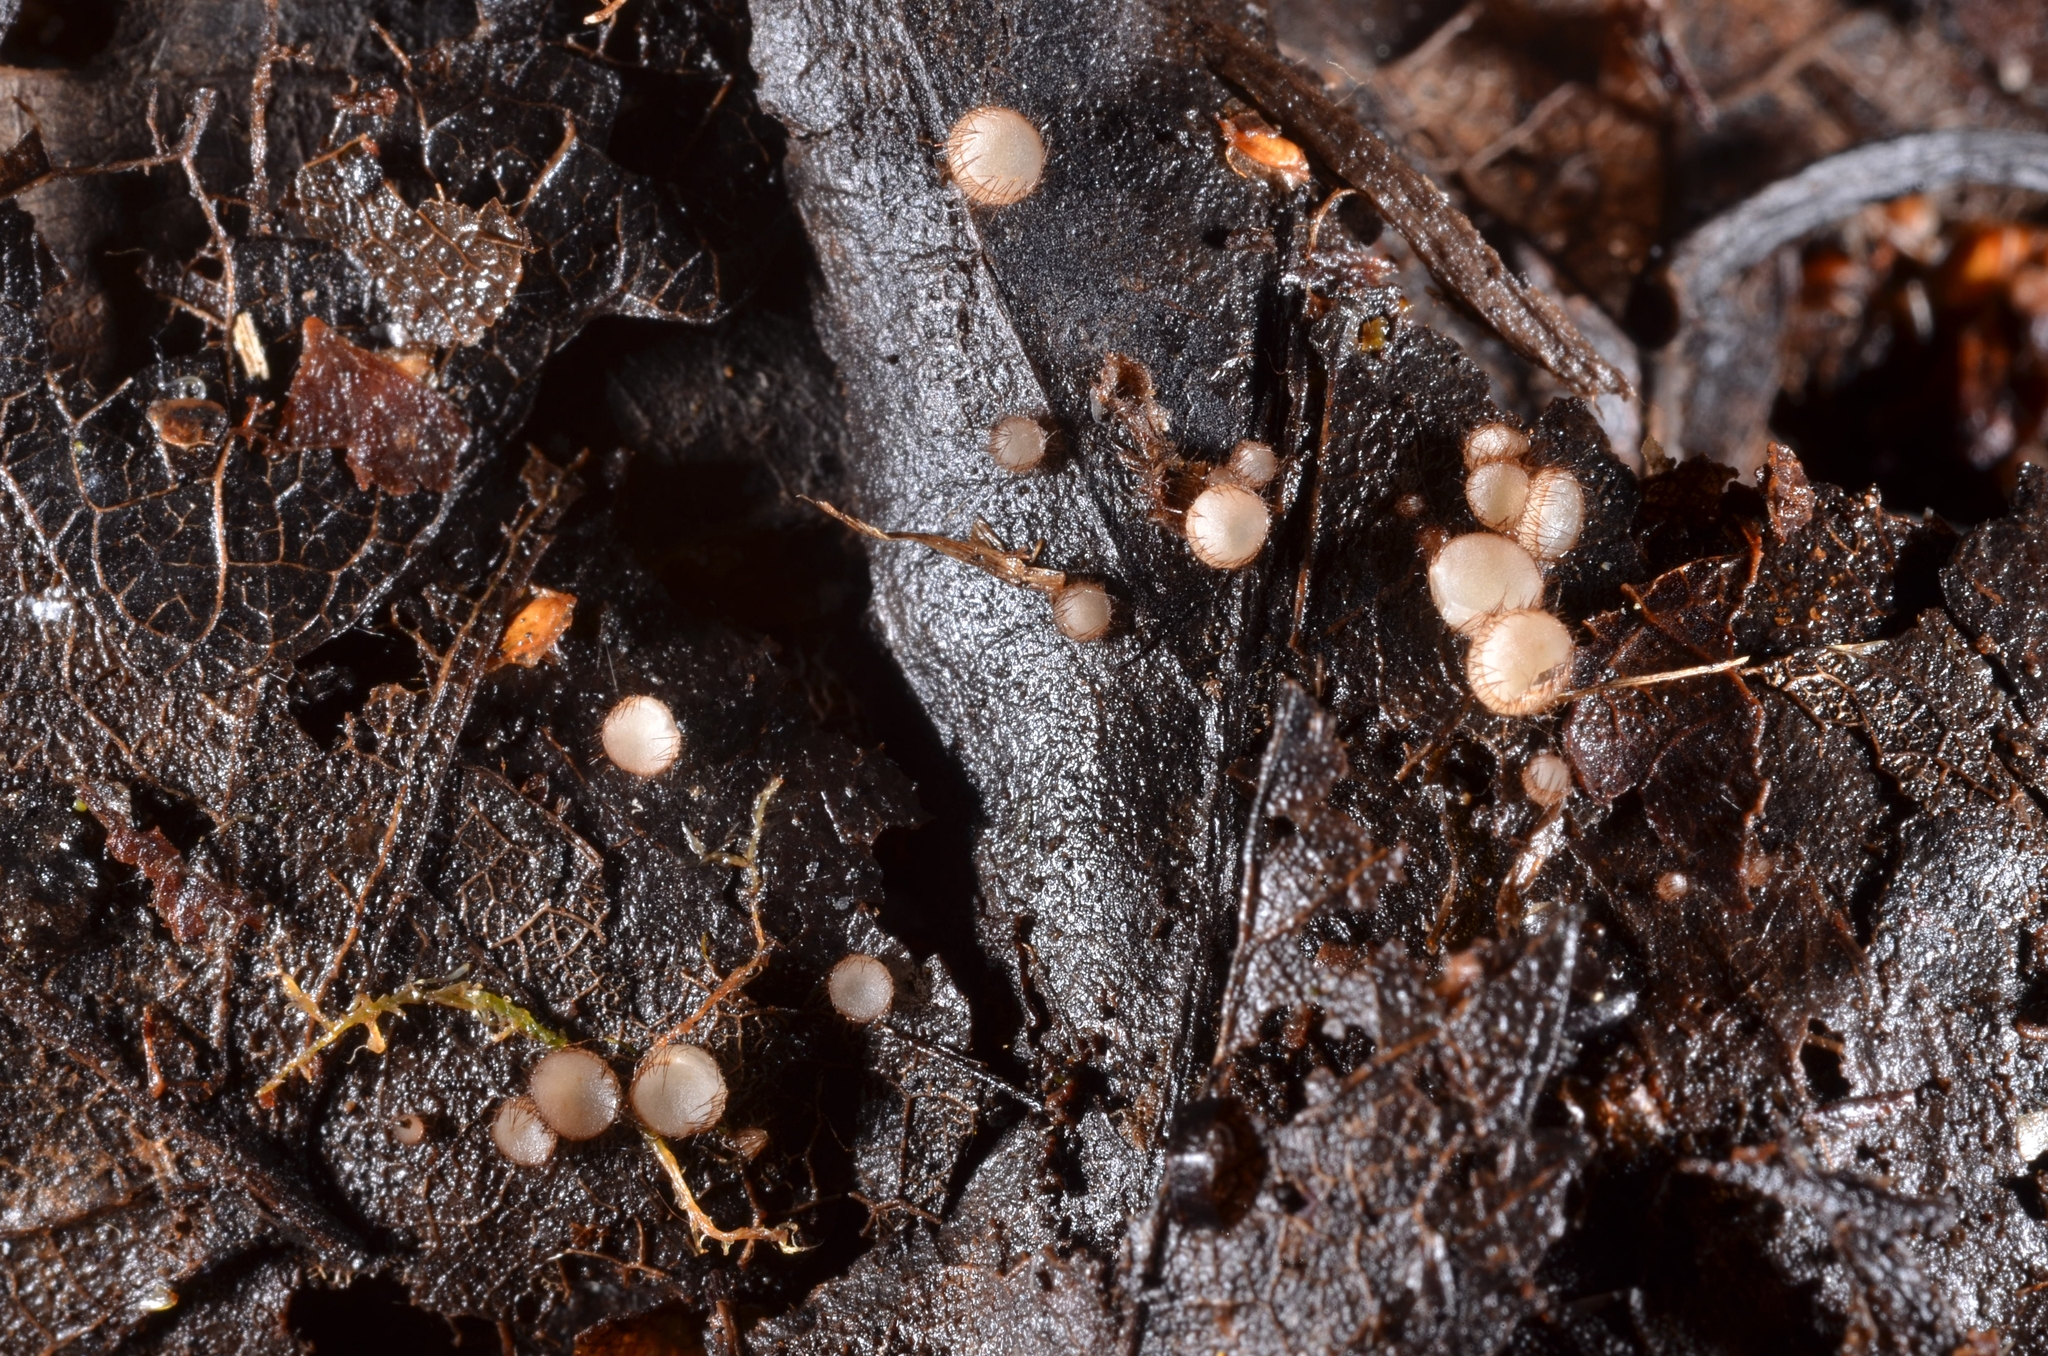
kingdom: Fungi
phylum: Ascomycota
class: Pezizomycetes
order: Pezizales
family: Pyronemataceae
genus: Trichophaeopsis
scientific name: Trichophaeopsis bicuspis
